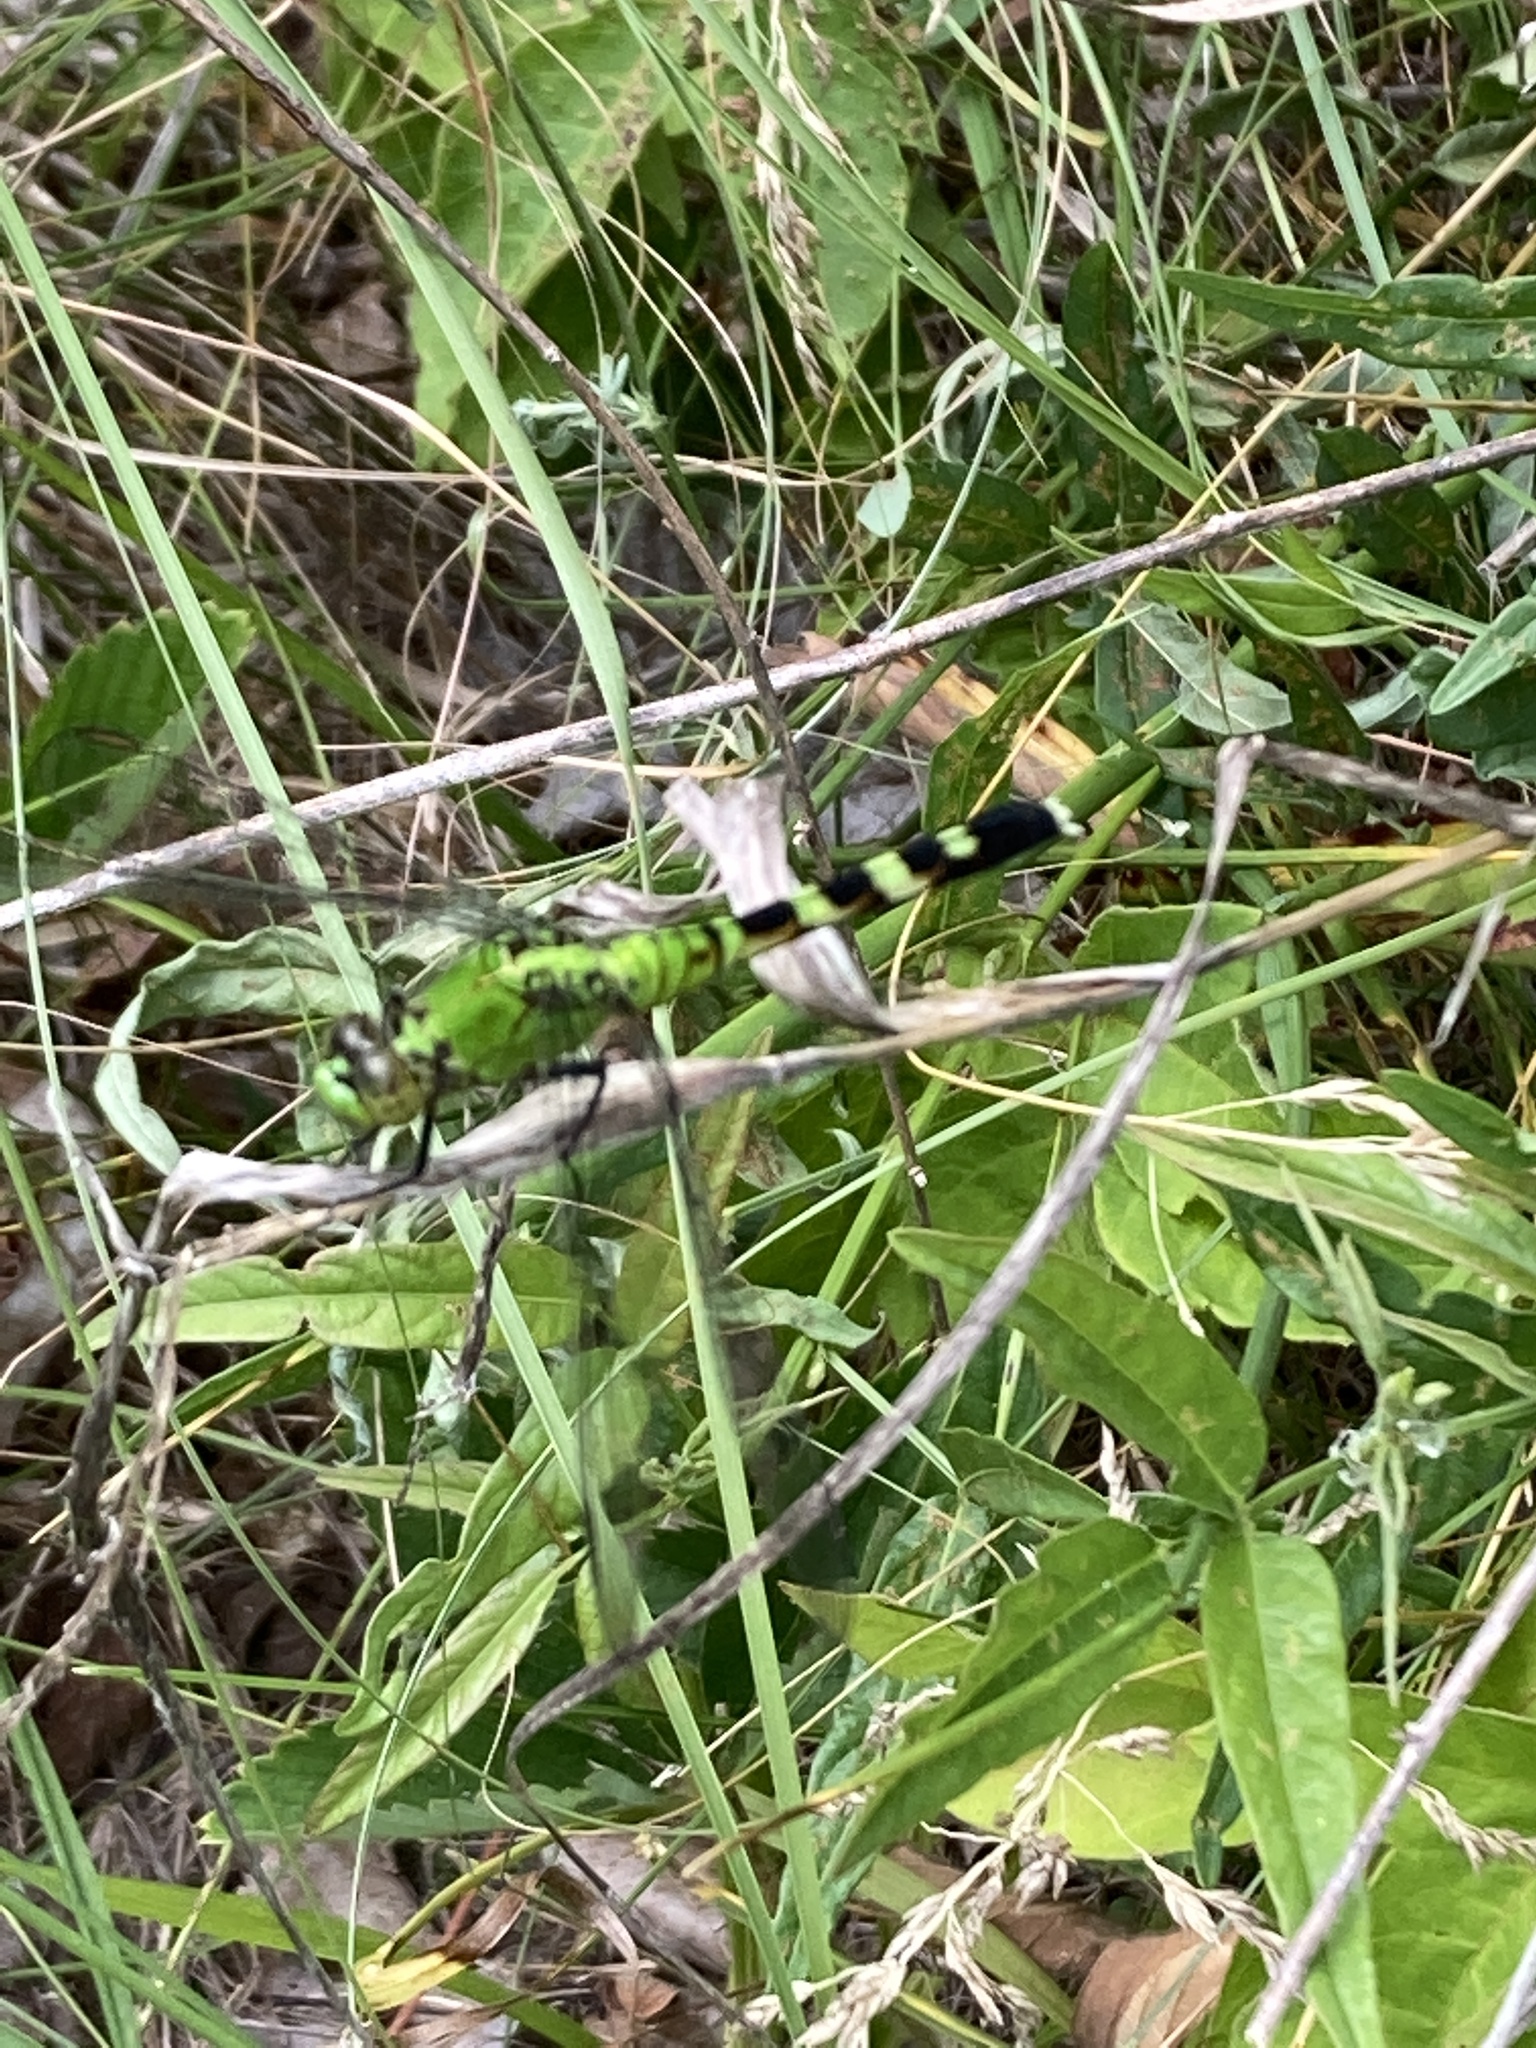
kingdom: Animalia
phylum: Arthropoda
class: Insecta
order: Odonata
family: Libellulidae
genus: Erythemis
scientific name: Erythemis simplicicollis
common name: Eastern pondhawk
